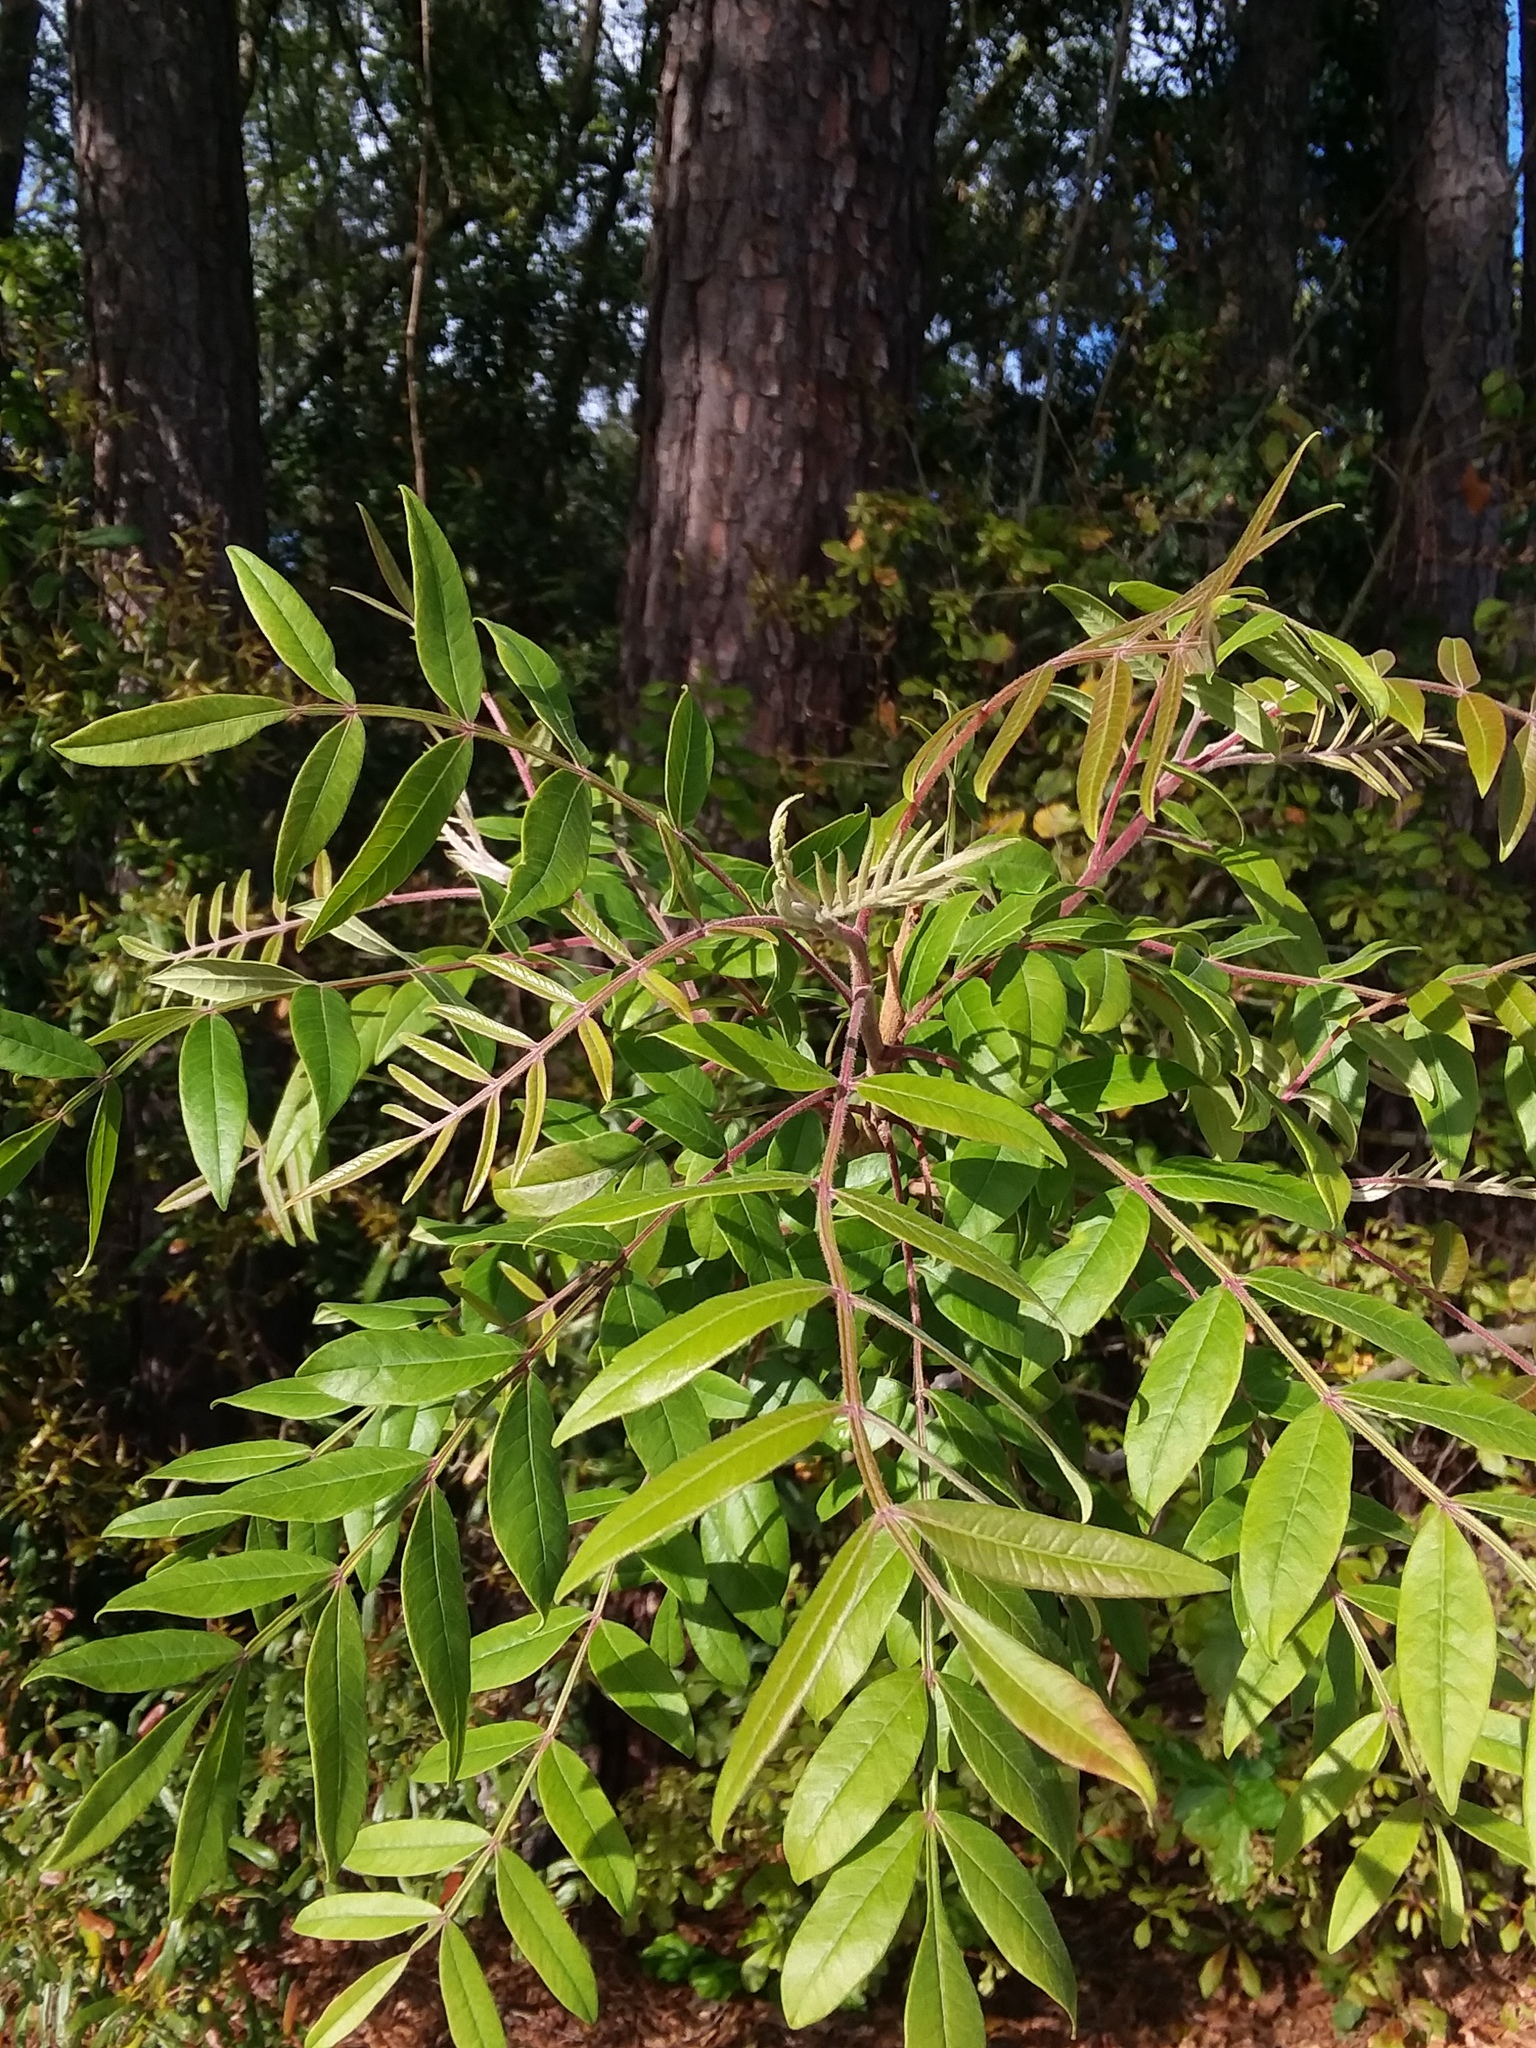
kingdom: Plantae
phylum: Tracheophyta
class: Magnoliopsida
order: Sapindales
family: Anacardiaceae
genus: Rhus
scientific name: Rhus copallina
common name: Shining sumac
